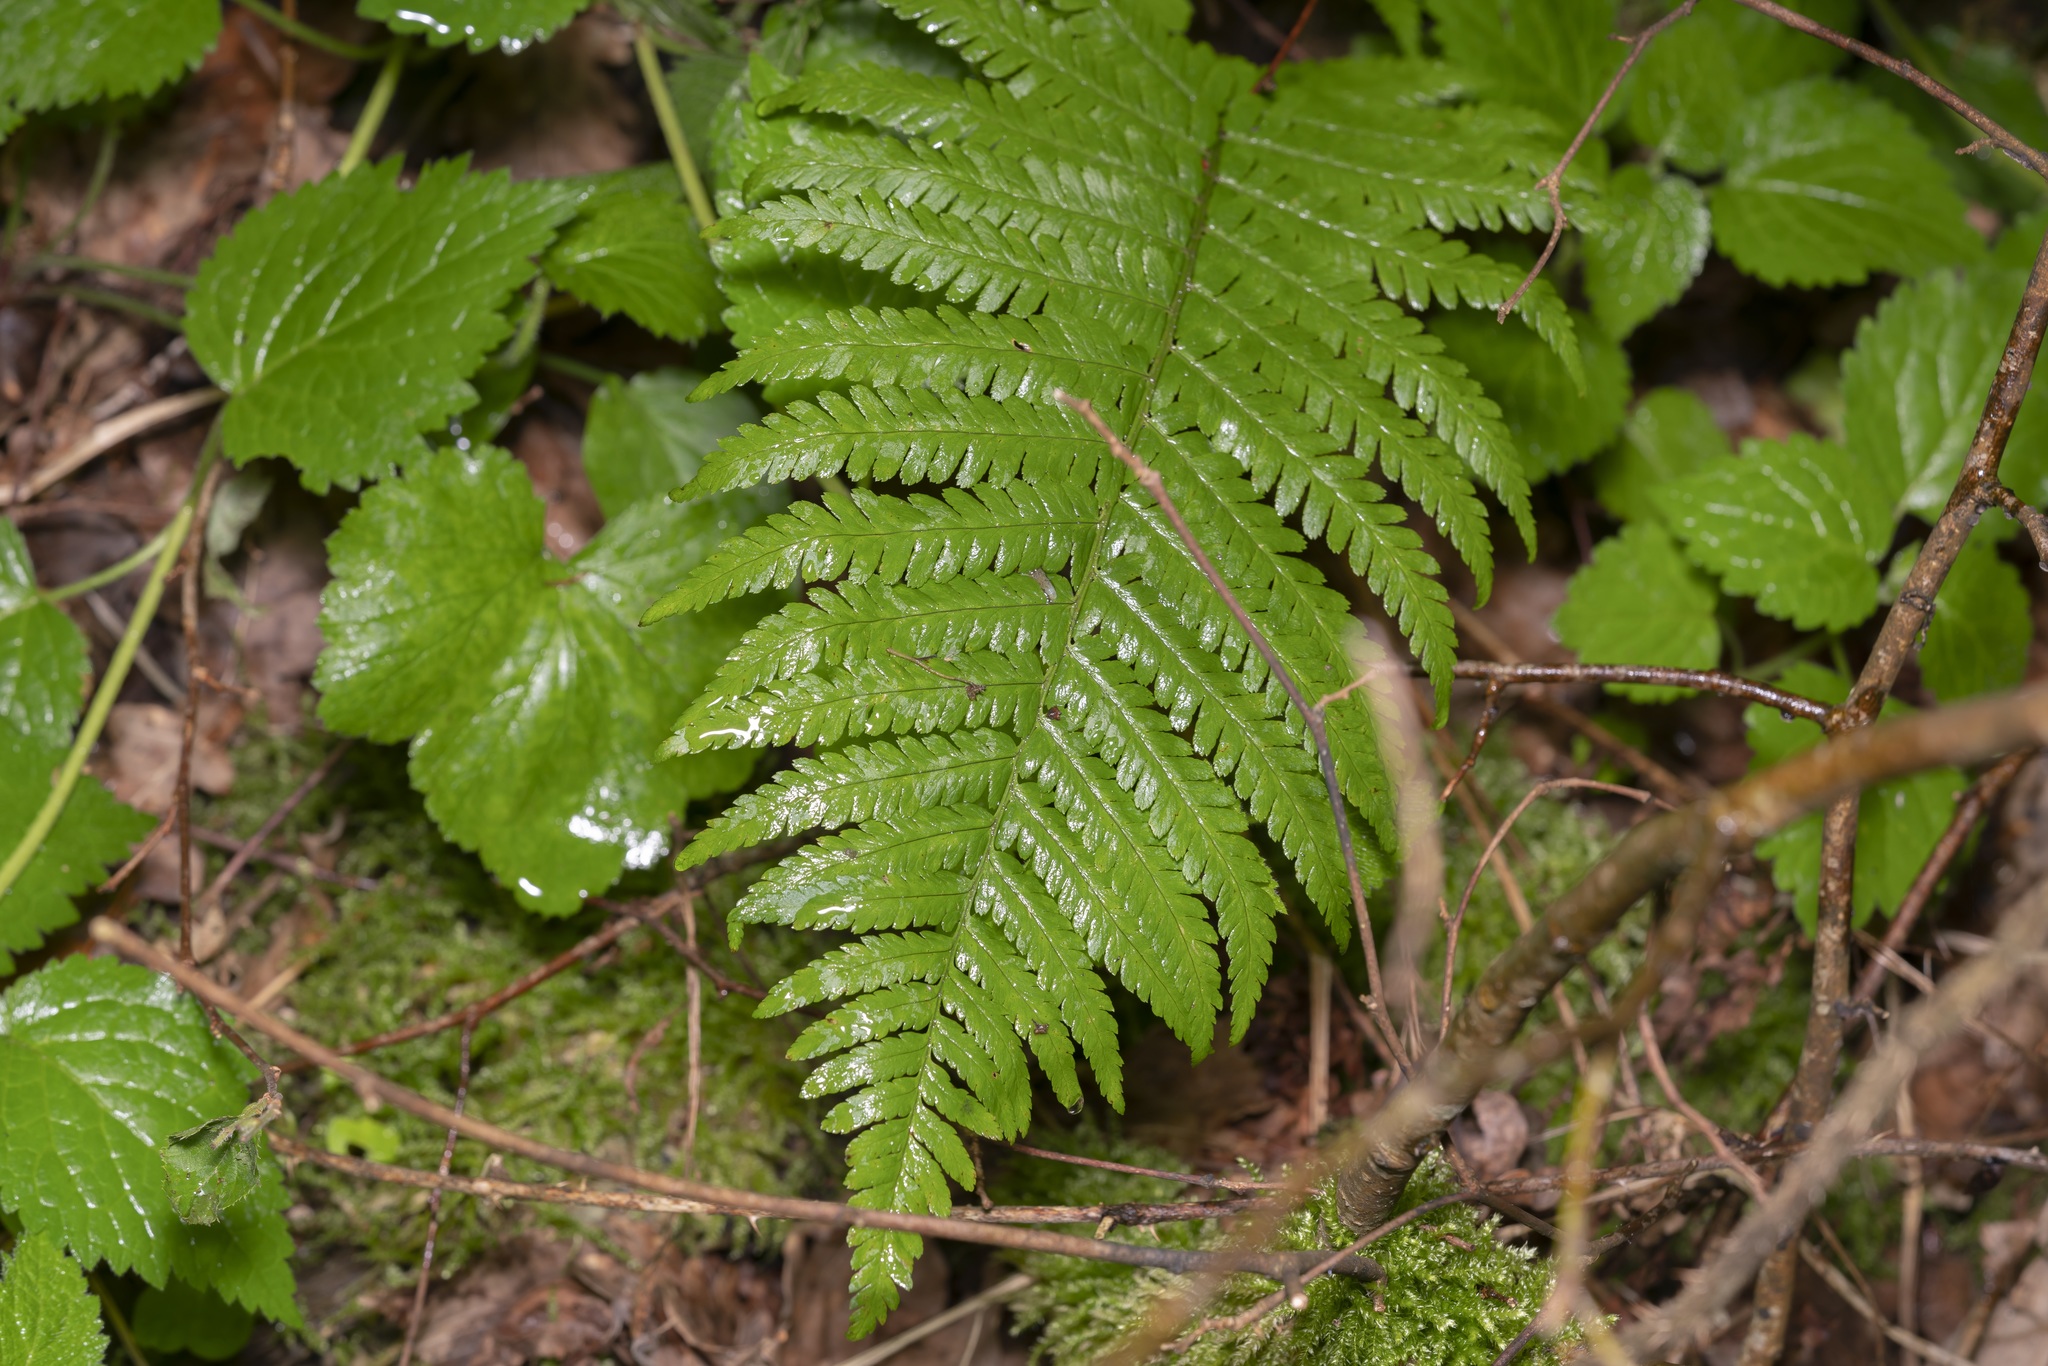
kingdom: Plantae
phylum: Tracheophyta
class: Polypodiopsida
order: Polypodiales
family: Dryopteridaceae
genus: Dryopteris
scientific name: Dryopteris filix-mas
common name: Male fern
